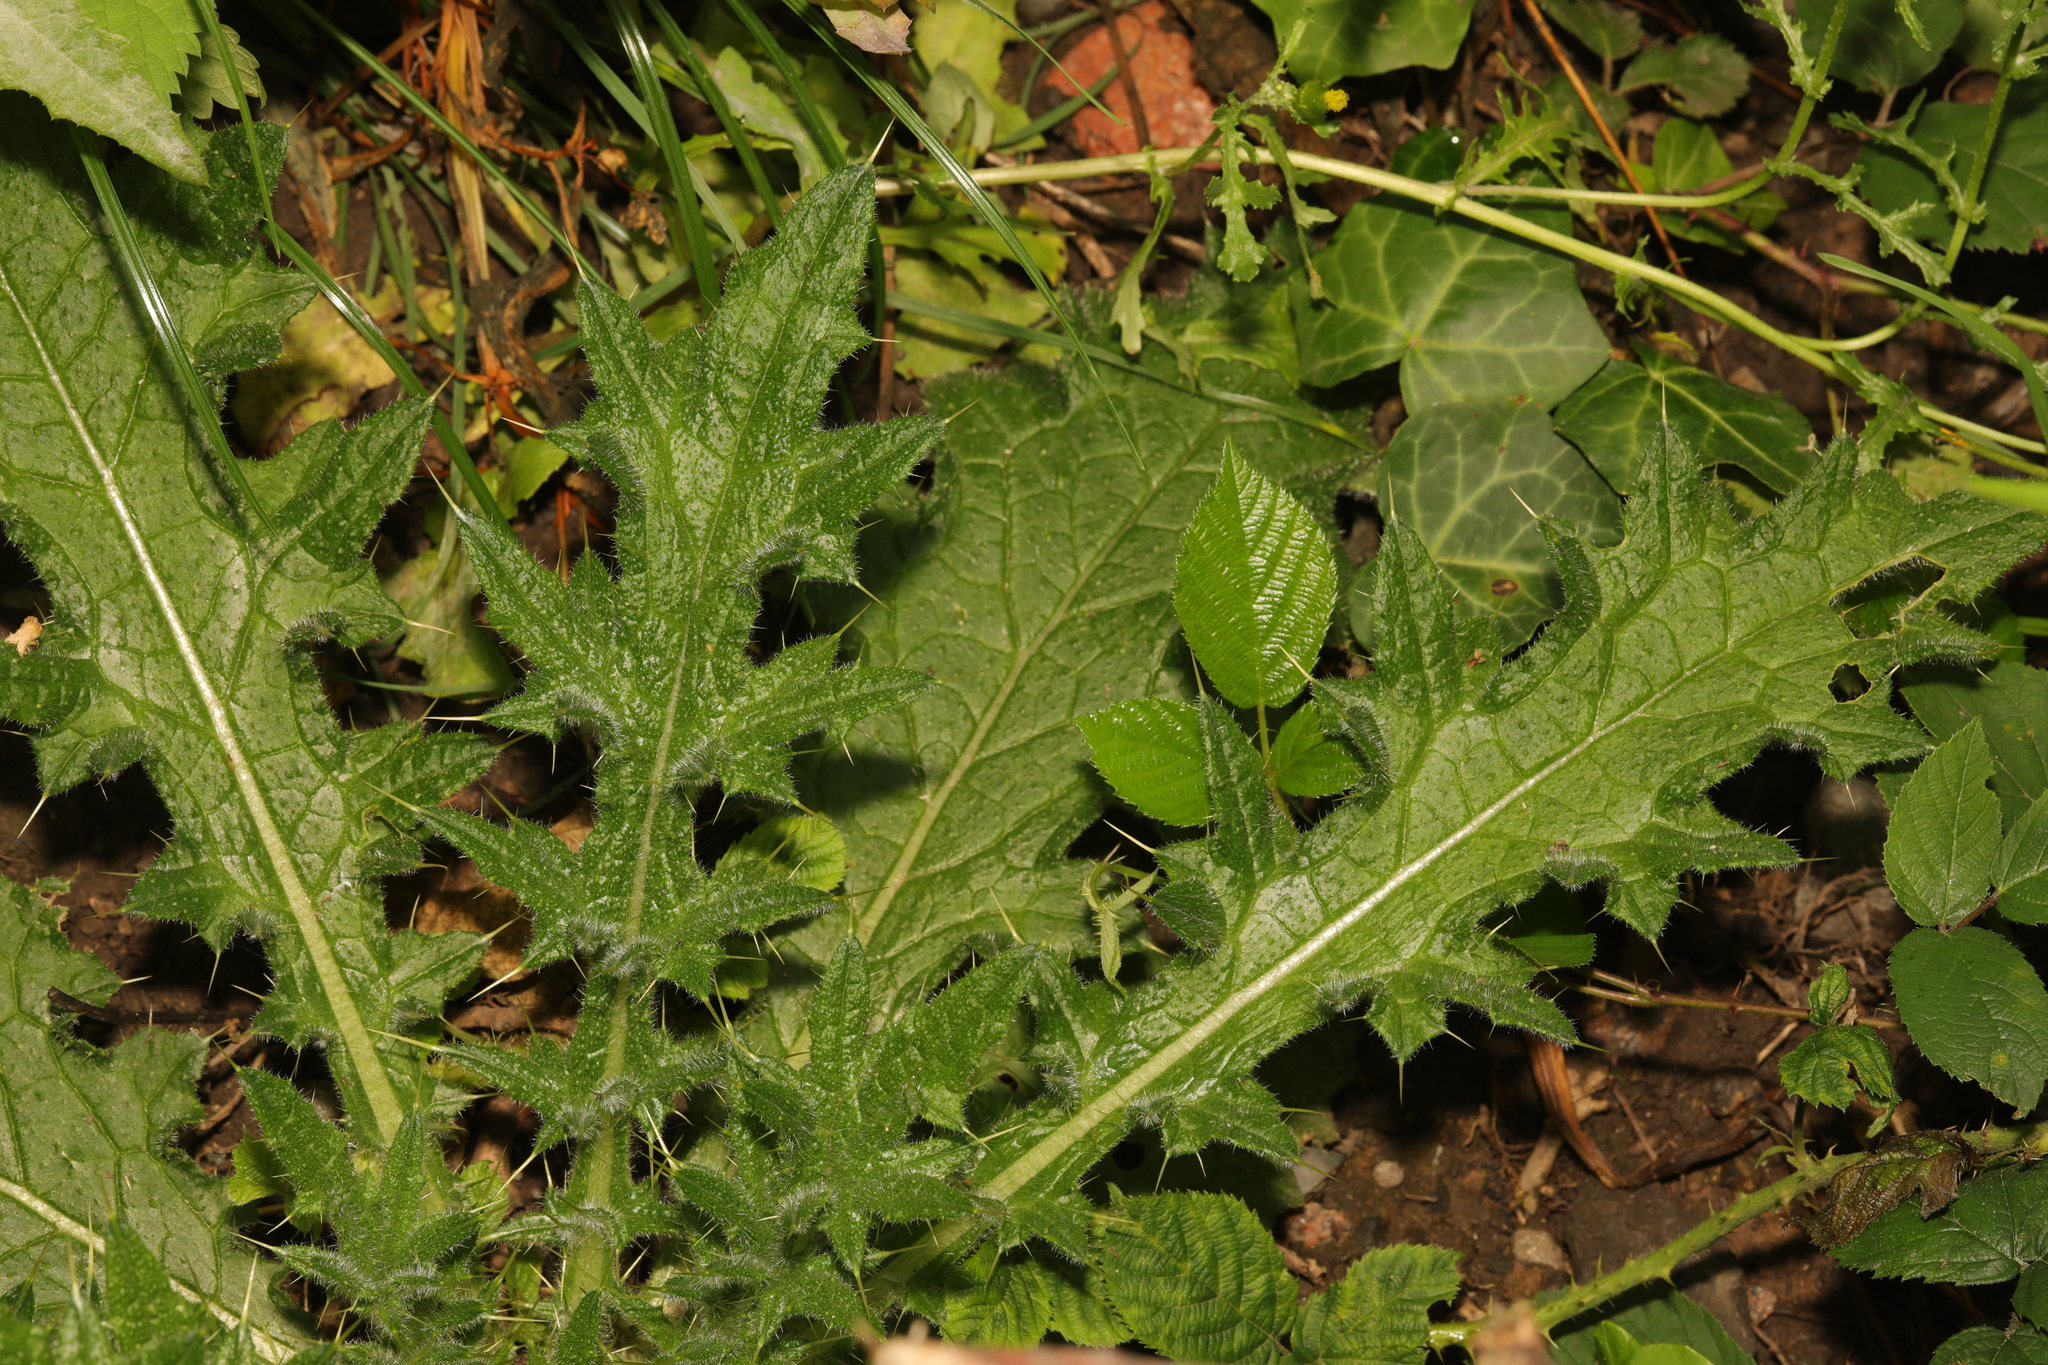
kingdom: Plantae
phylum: Tracheophyta
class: Magnoliopsida
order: Asterales
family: Asteraceae
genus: Cirsium
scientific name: Cirsium vulgare
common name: Bull thistle
